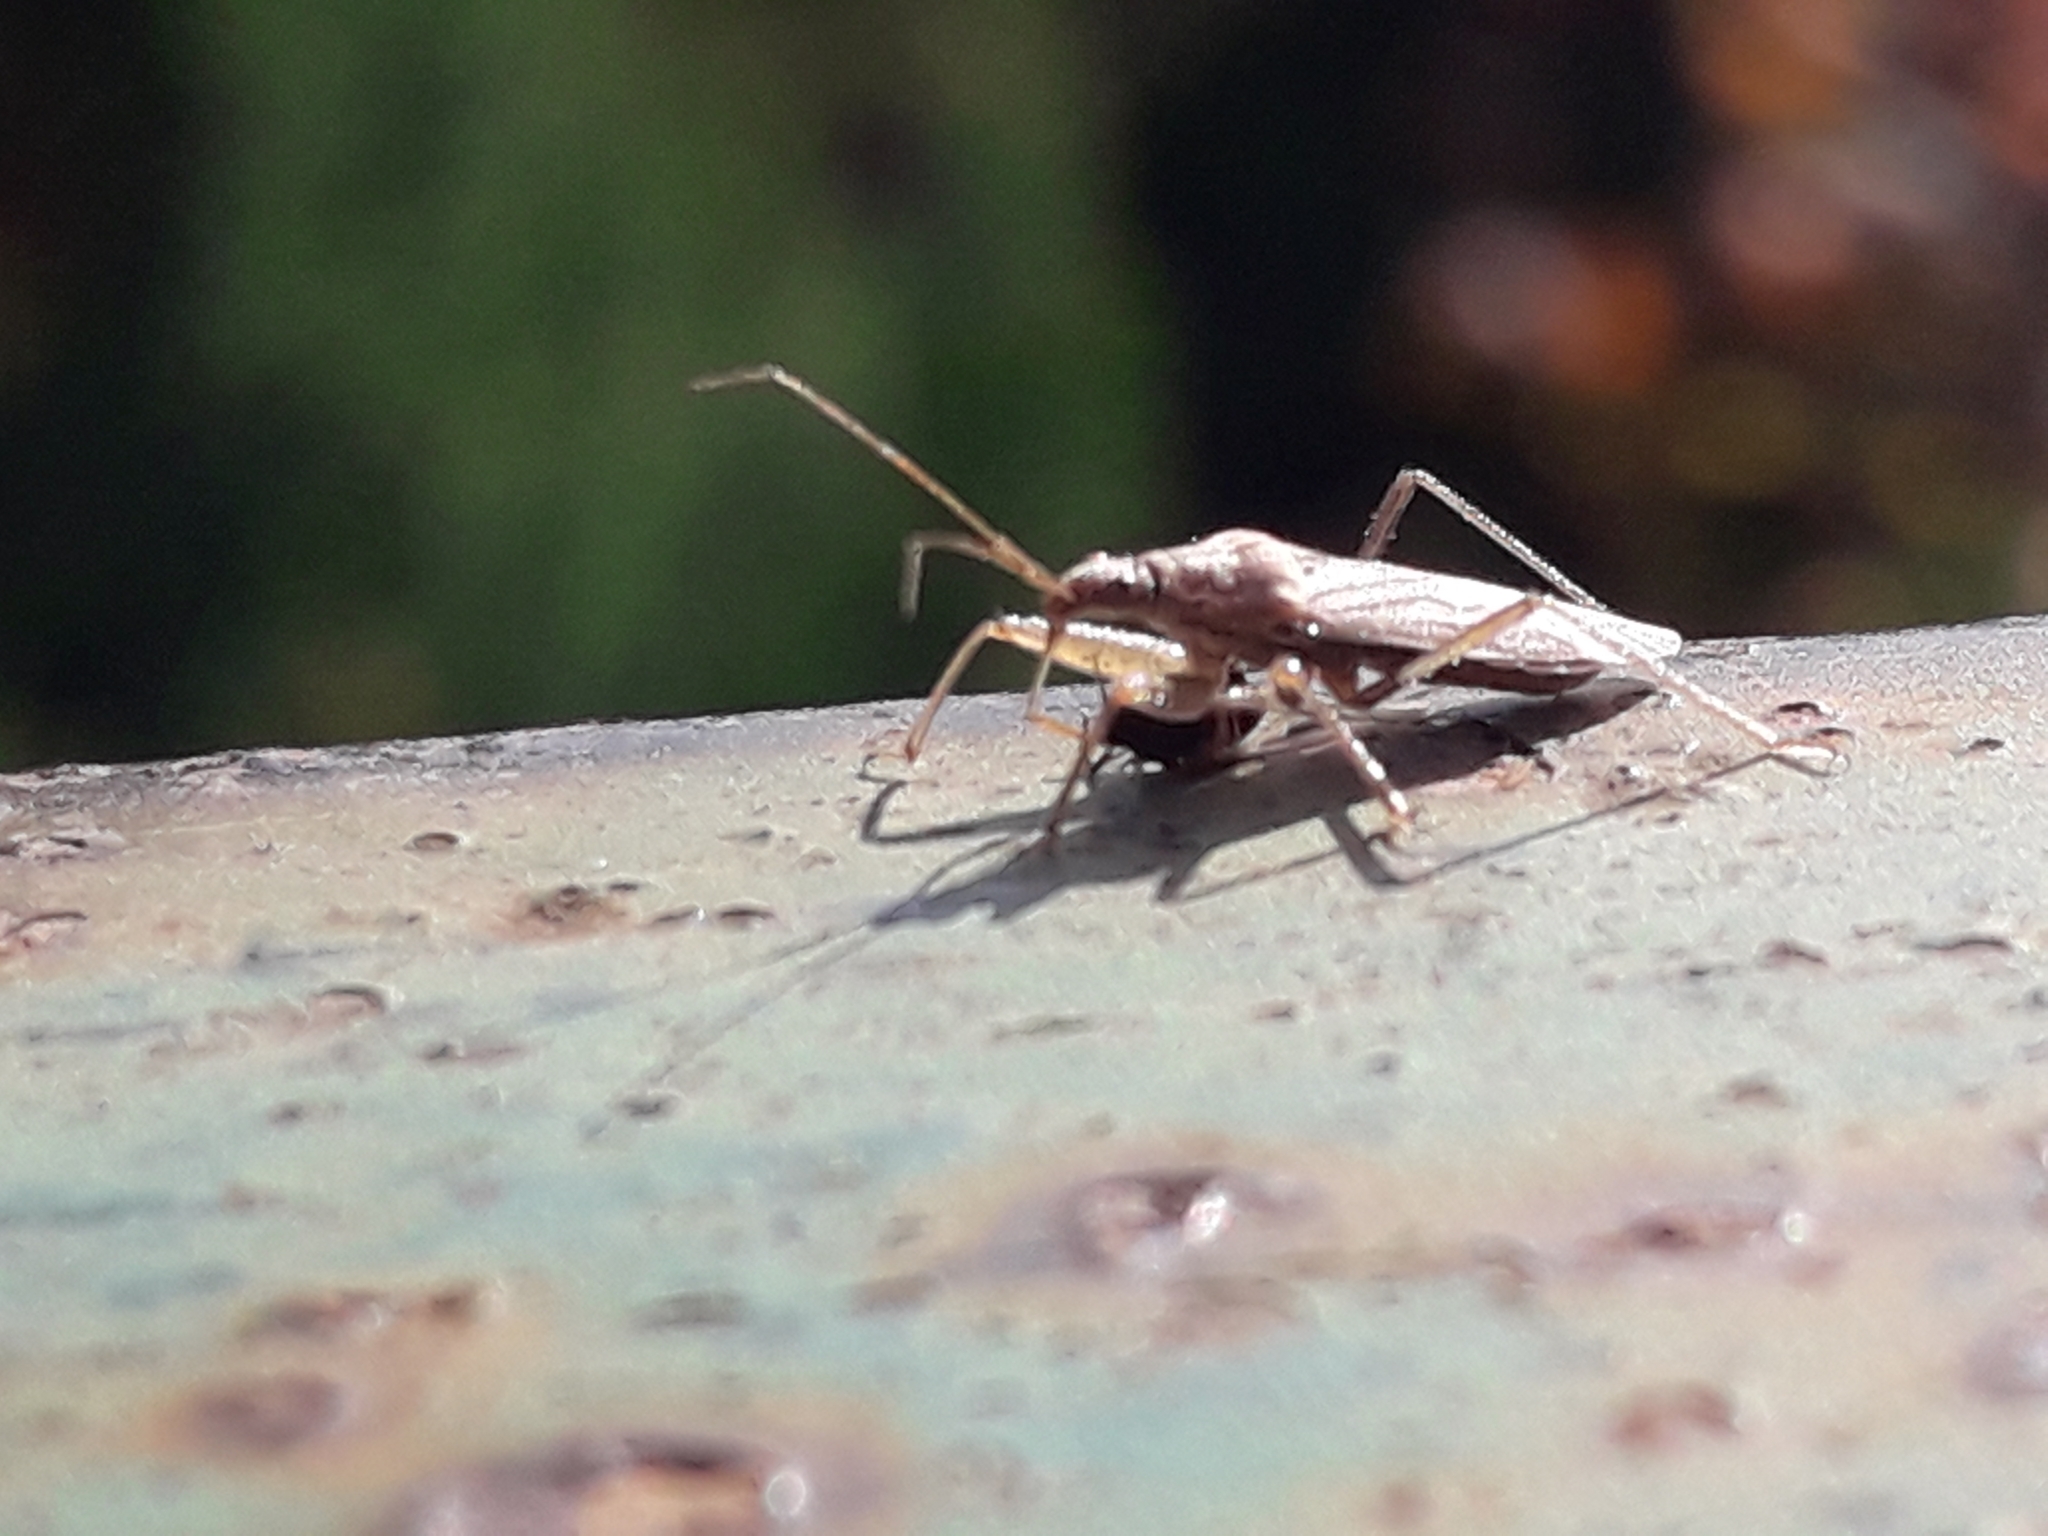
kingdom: Animalia
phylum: Arthropoda
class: Insecta
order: Hemiptera
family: Nabidae
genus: Nabis
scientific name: Nabis
